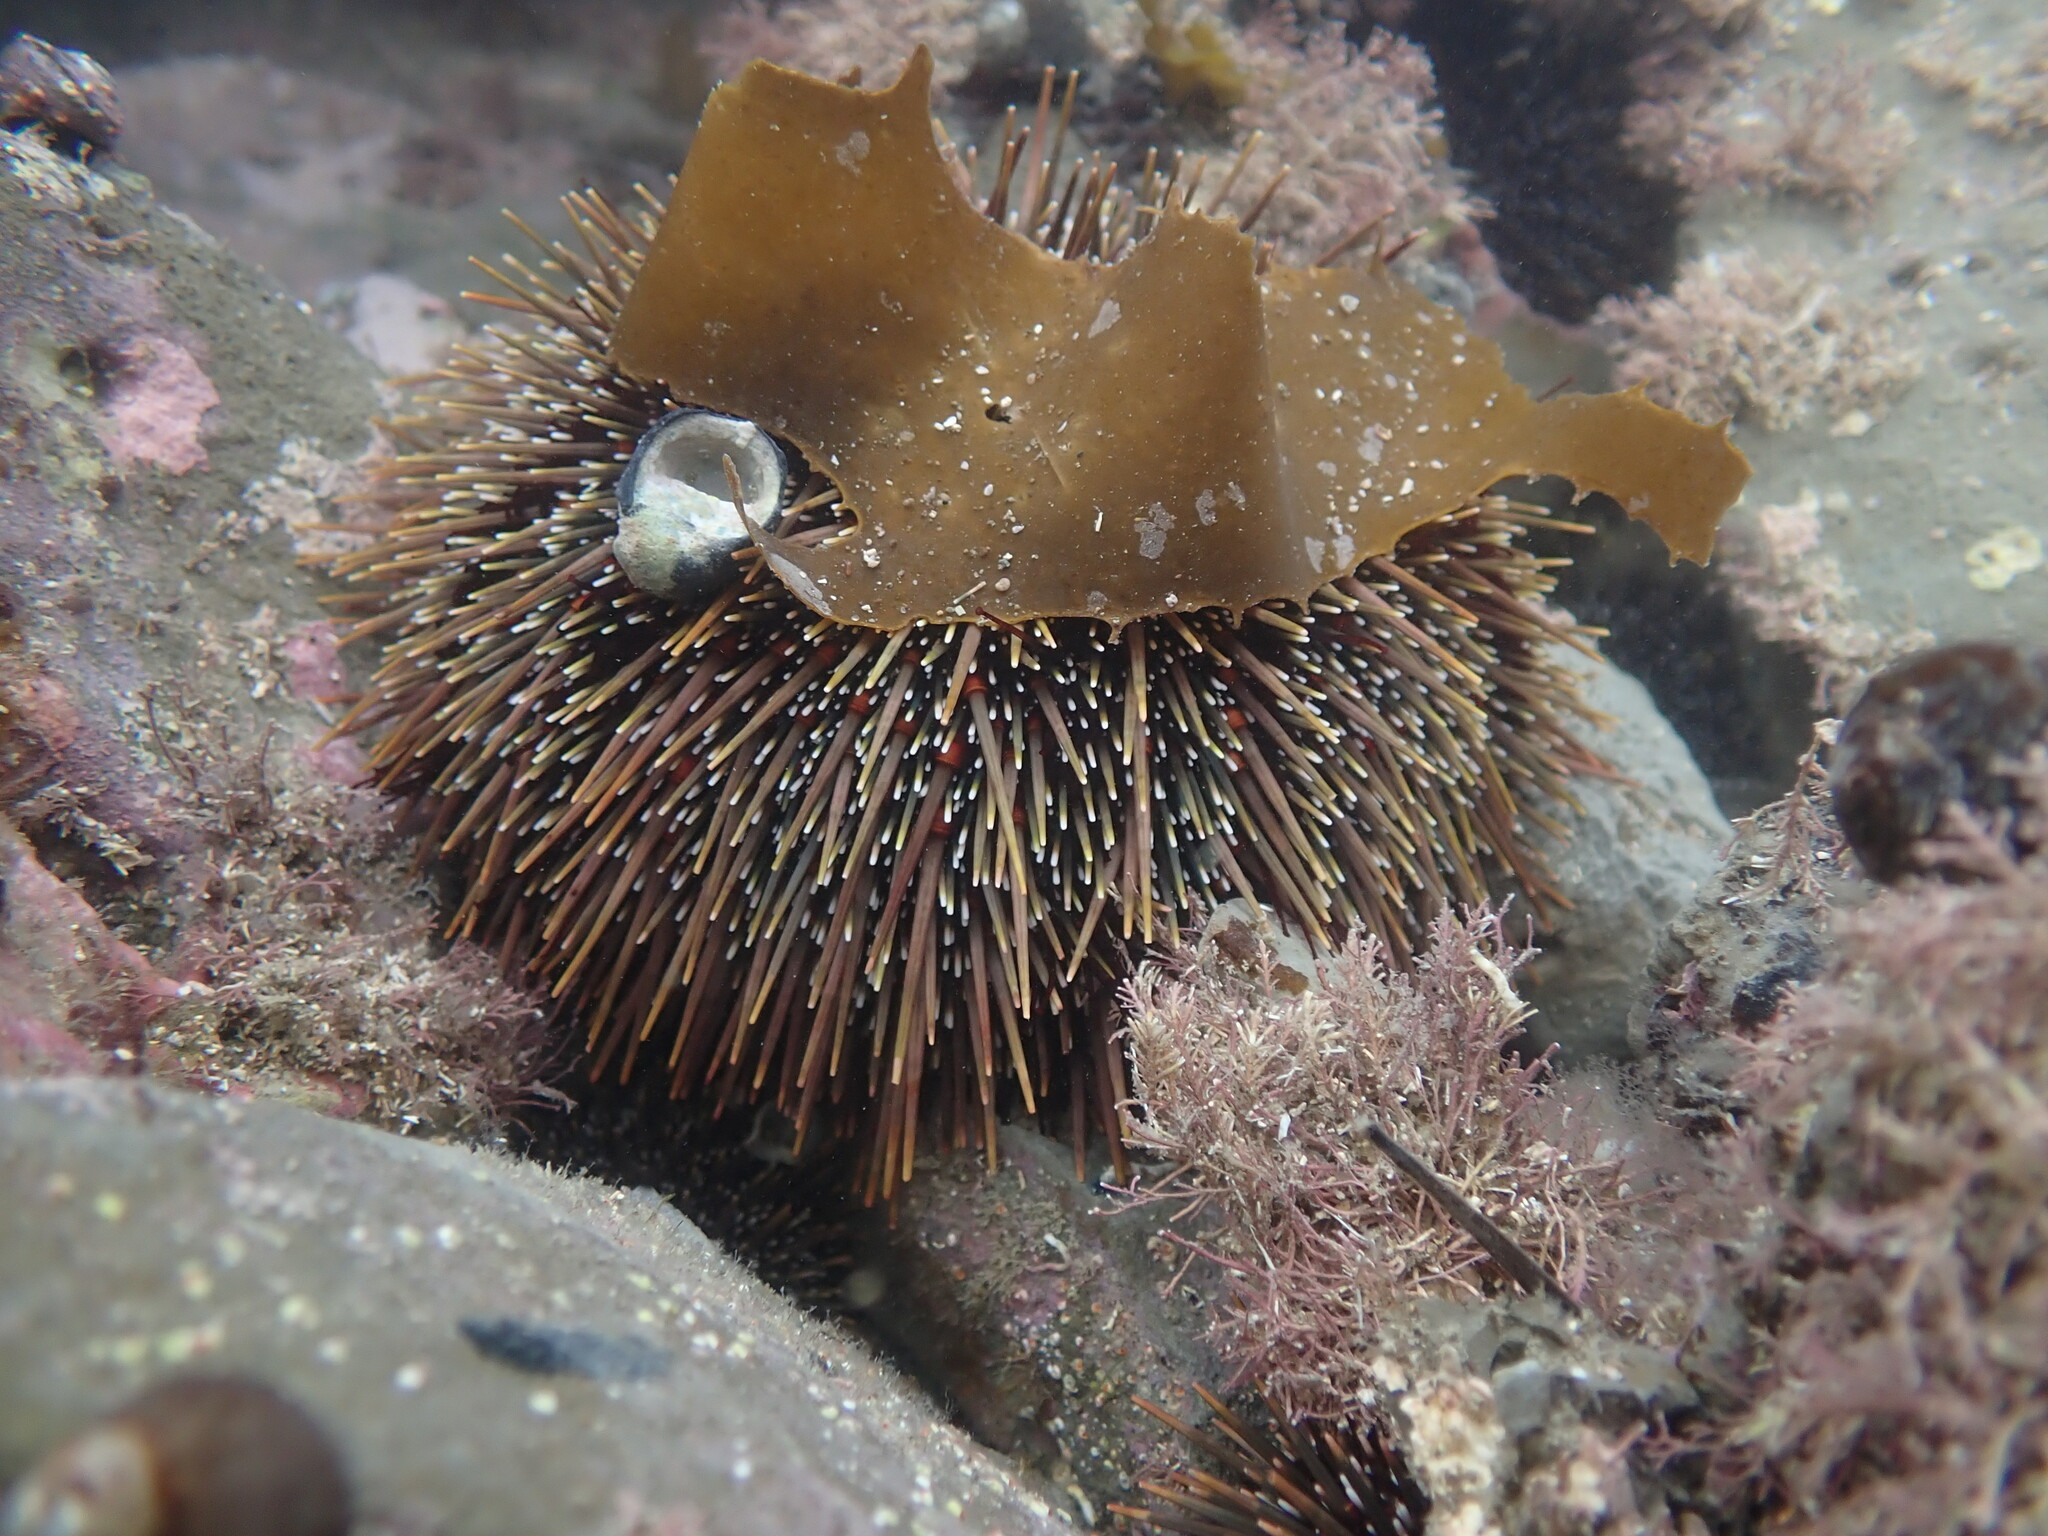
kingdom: Animalia
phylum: Echinodermata
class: Echinoidea
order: Camarodonta
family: Echinometridae
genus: Evechinus
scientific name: Evechinus chloroticus
